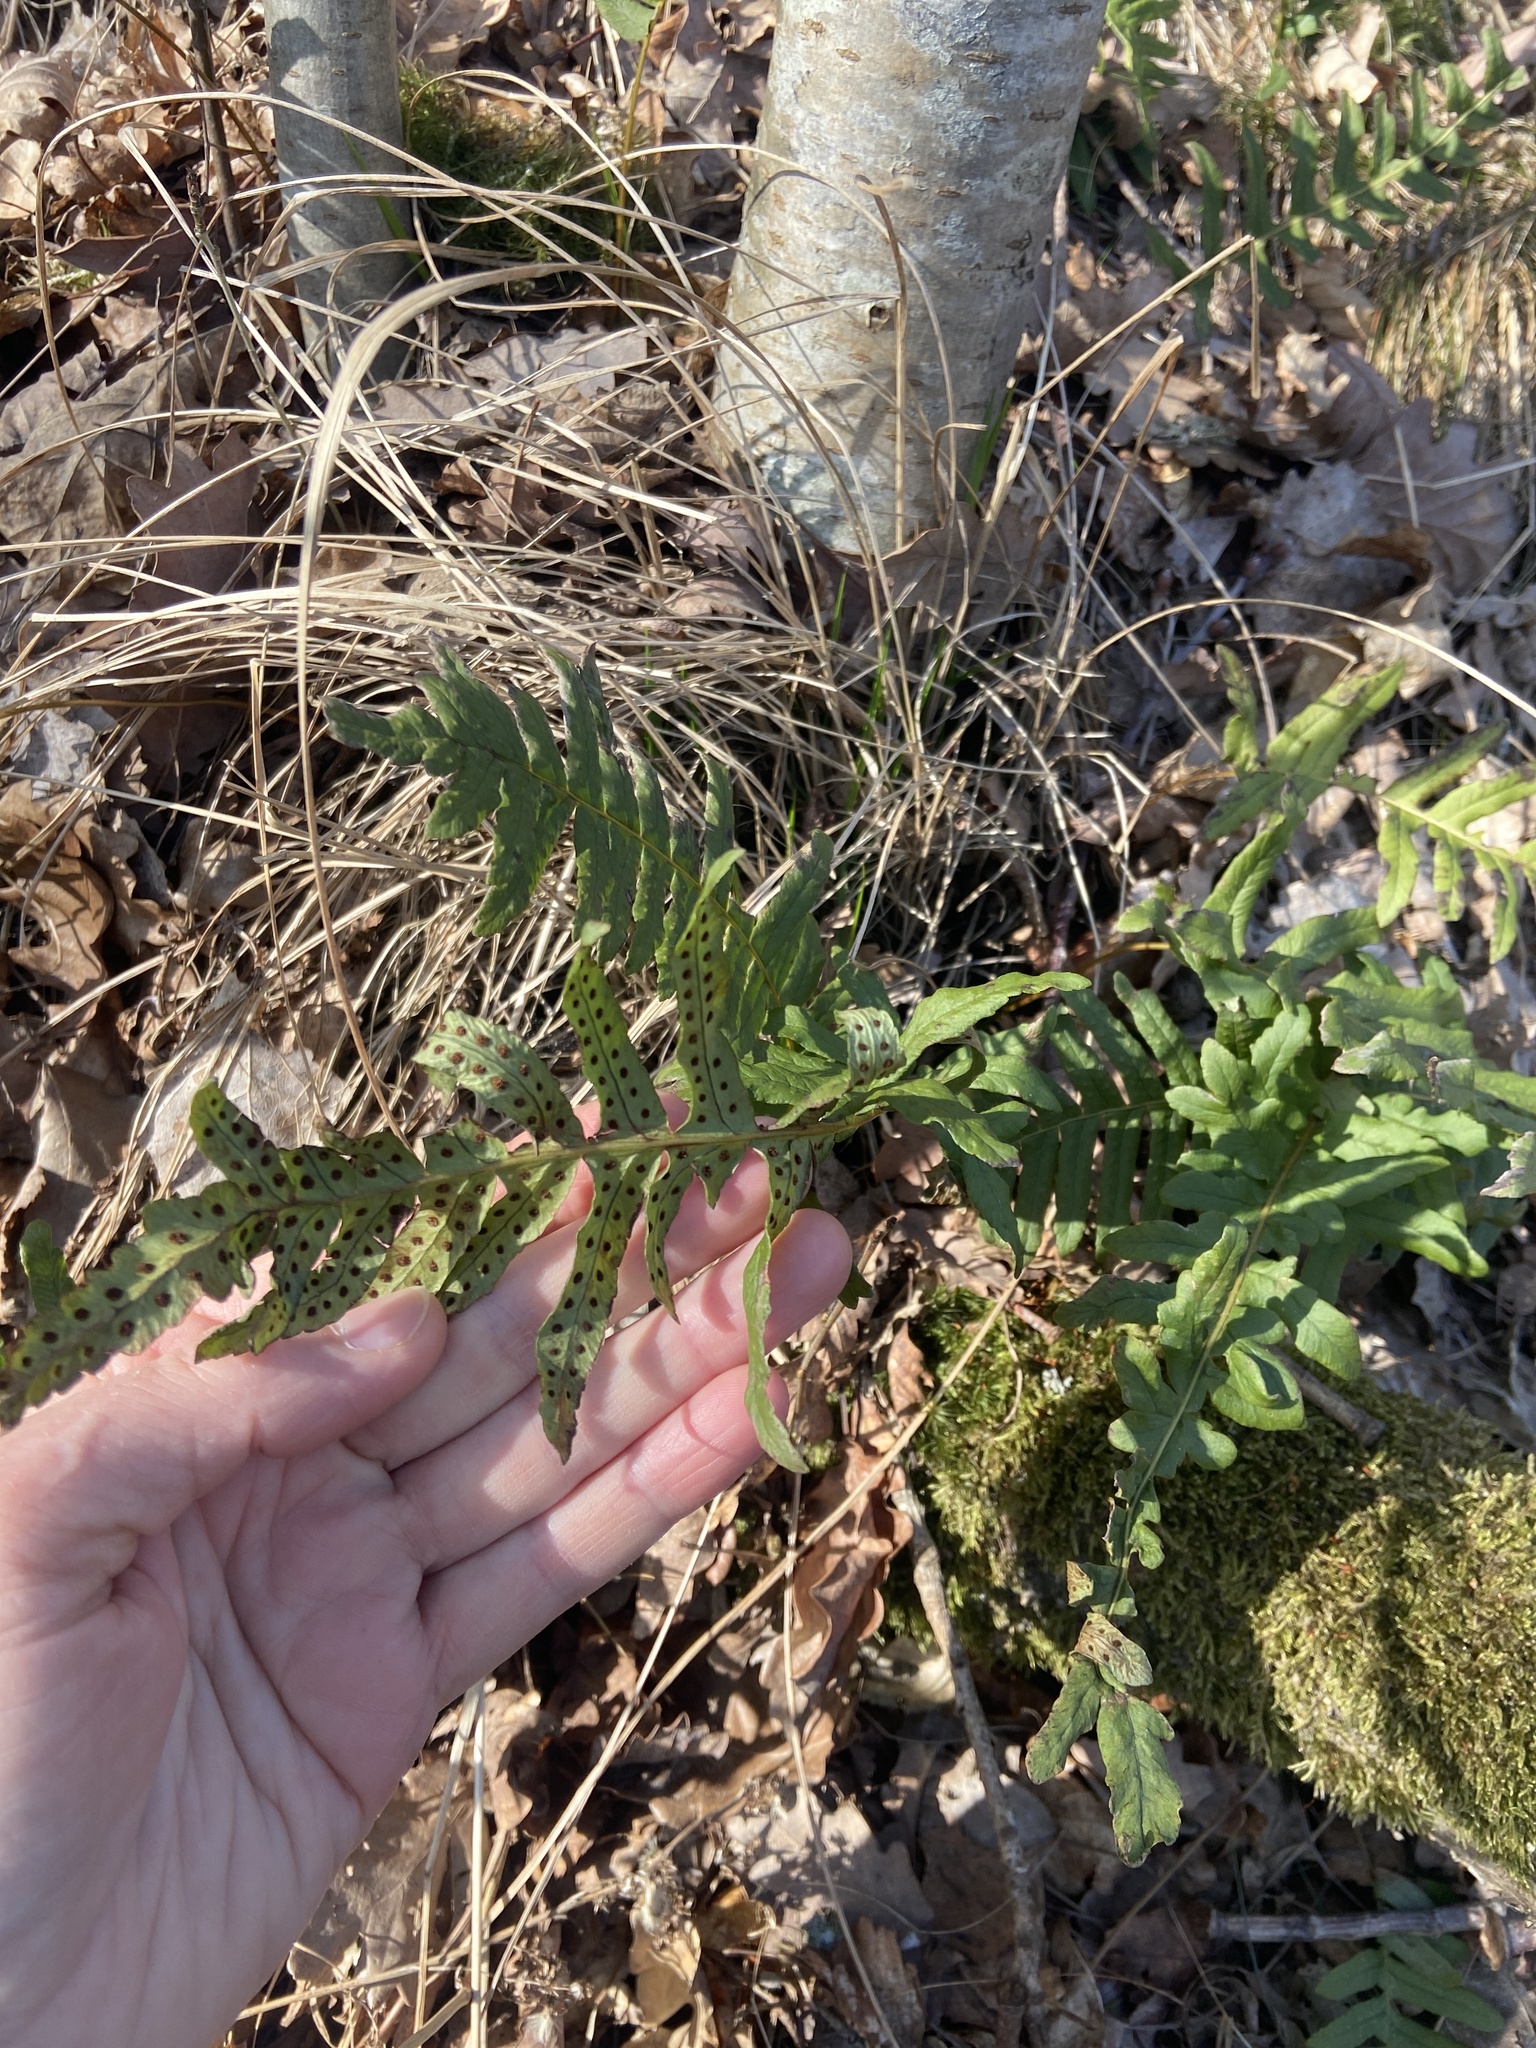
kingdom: Plantae
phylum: Tracheophyta
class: Polypodiopsida
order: Polypodiales
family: Polypodiaceae
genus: Polypodium
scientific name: Polypodium vulgare
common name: Common polypody
